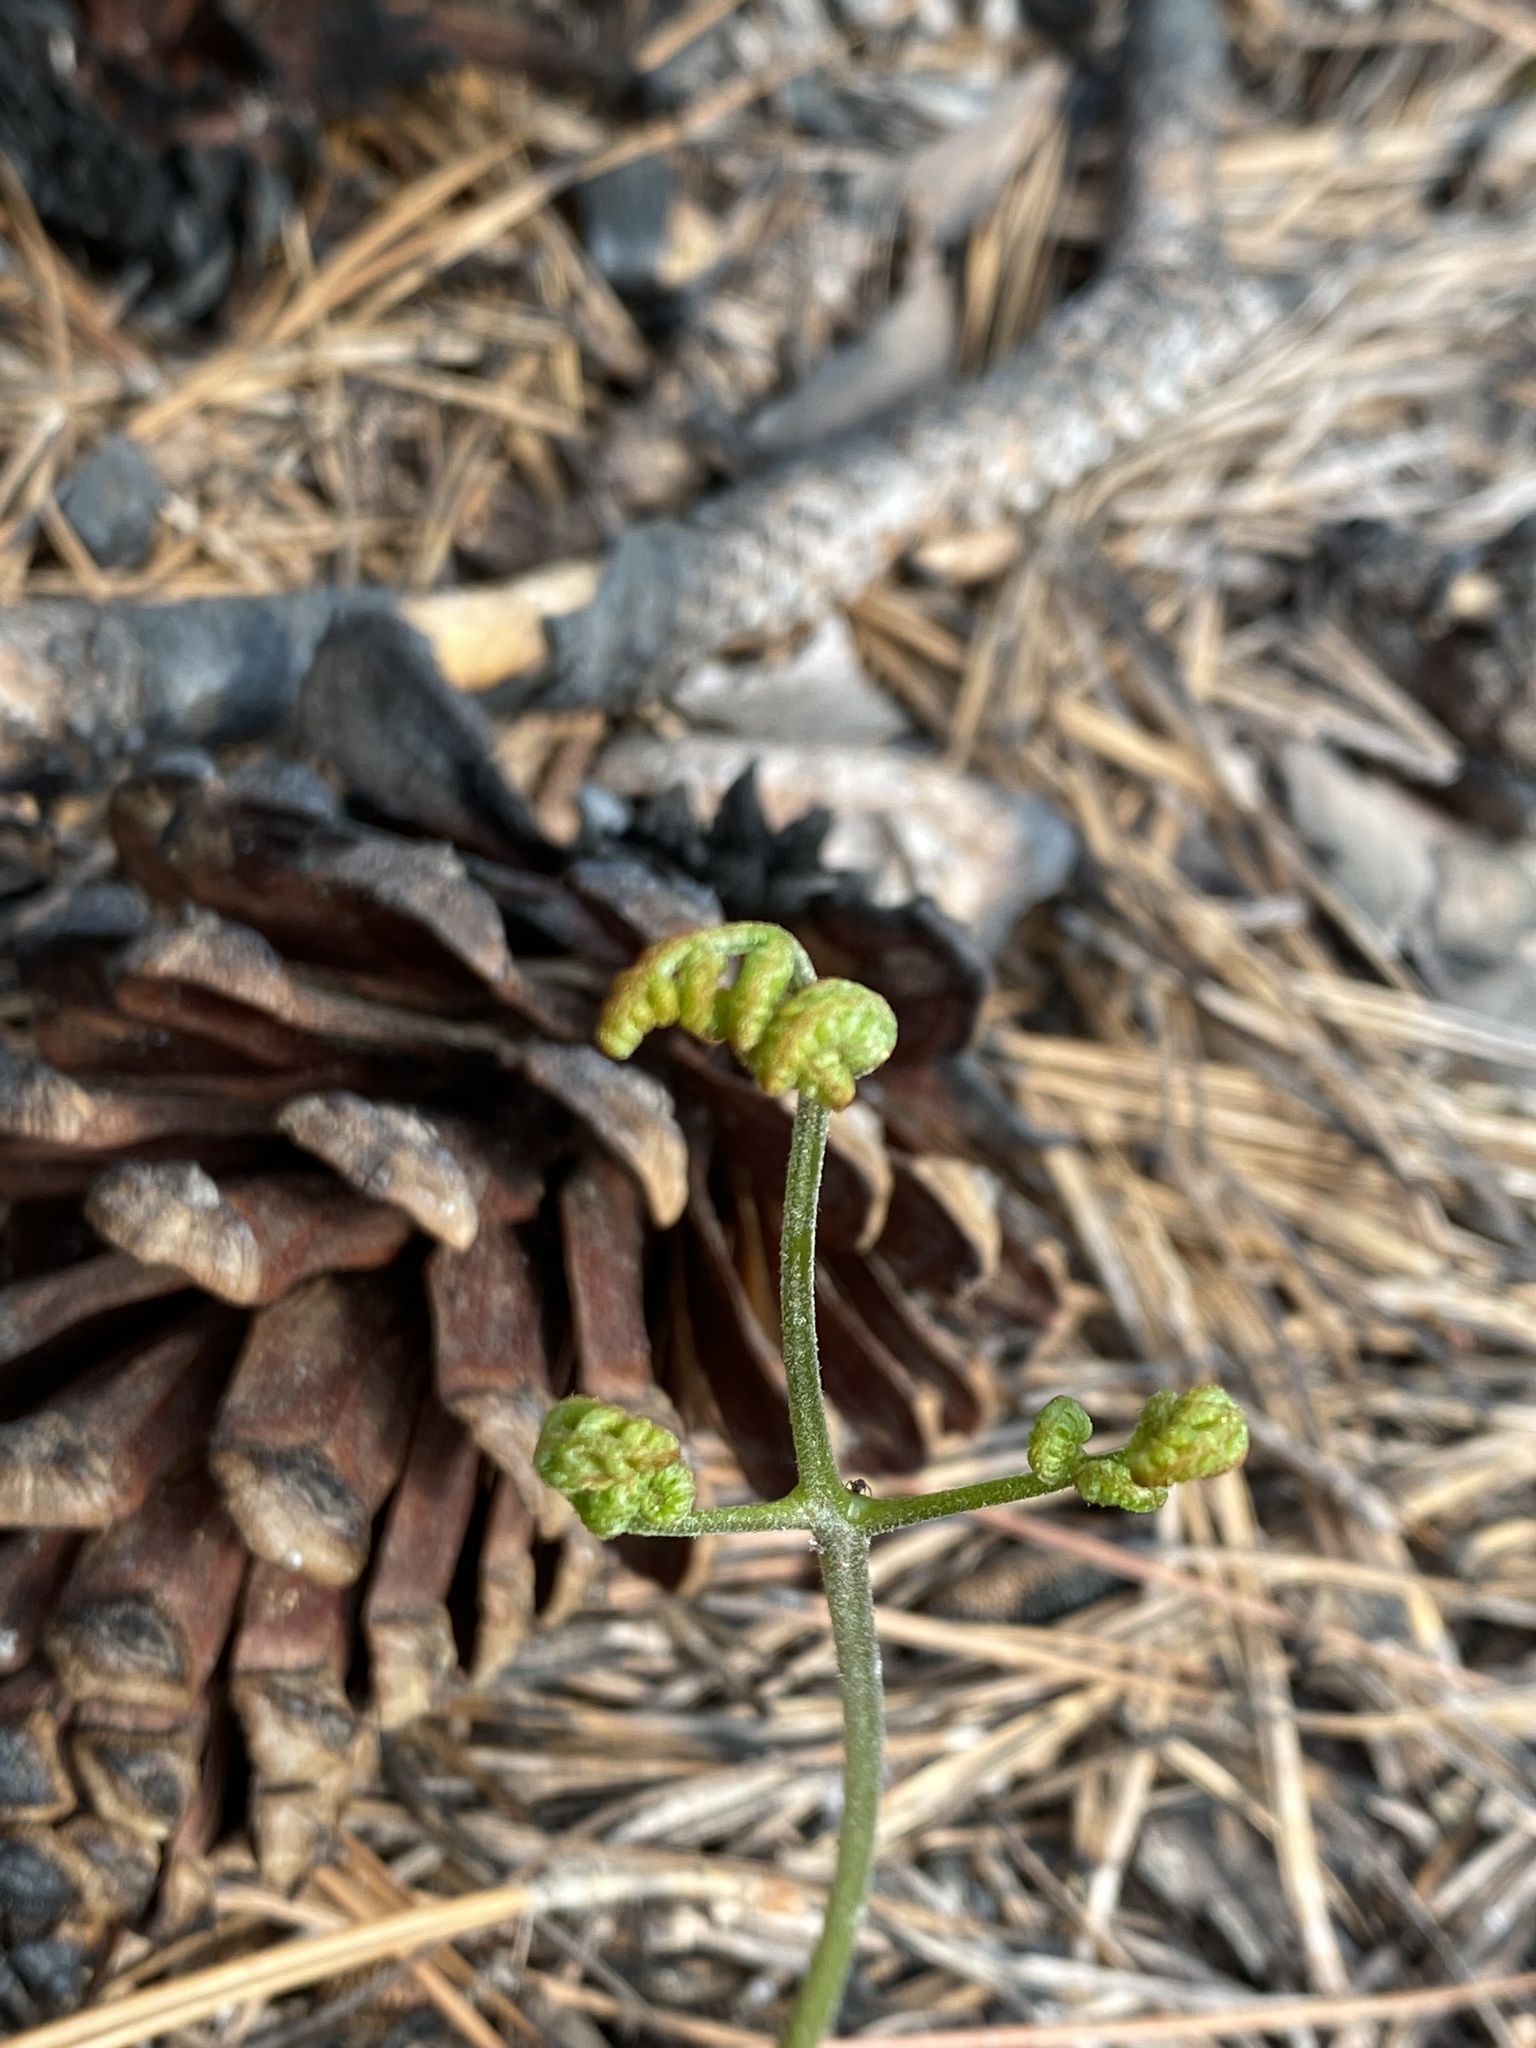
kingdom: Plantae
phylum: Tracheophyta
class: Polypodiopsida
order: Polypodiales
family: Dennstaedtiaceae
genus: Pteridium
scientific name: Pteridium
